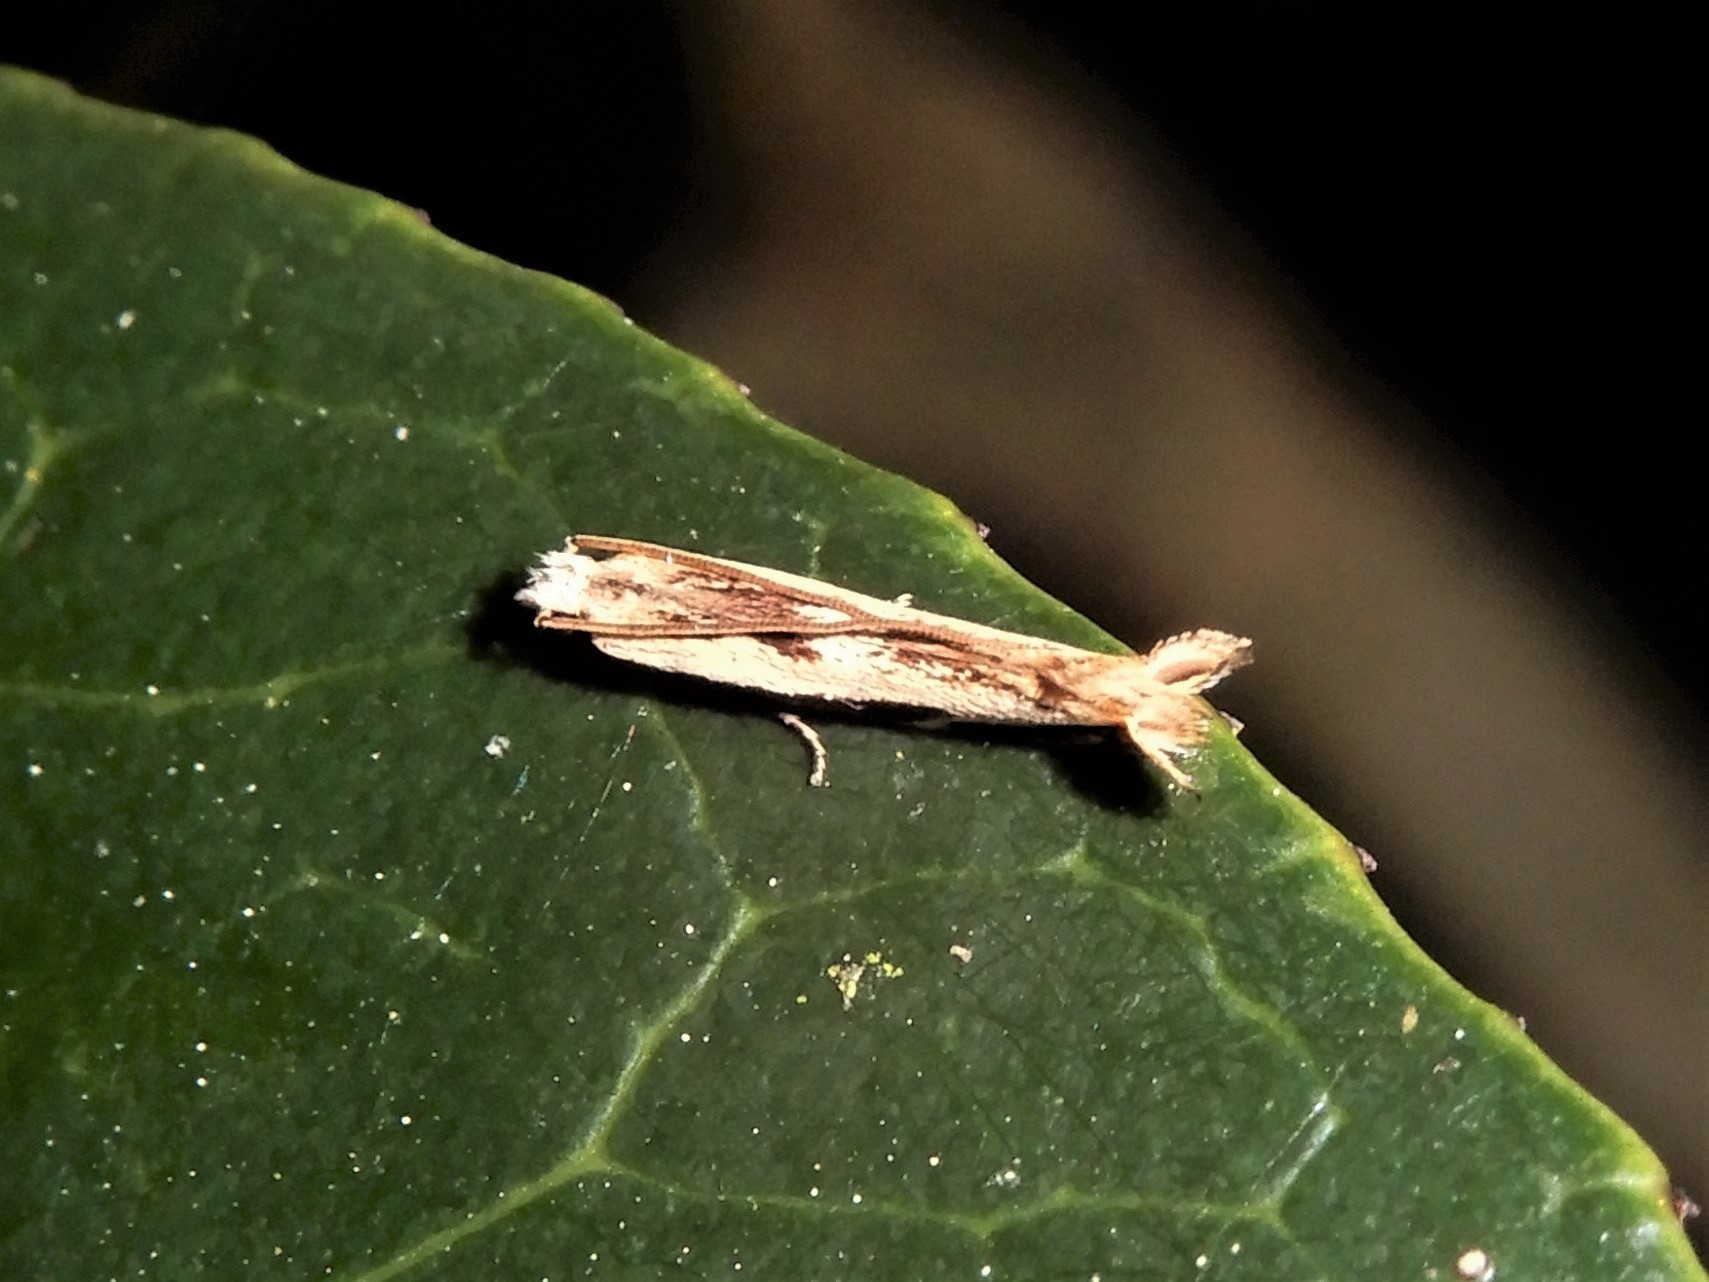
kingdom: Animalia
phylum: Arthropoda
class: Insecta
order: Lepidoptera
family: Tineidae
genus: Erechthias
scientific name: Erechthias terminella
